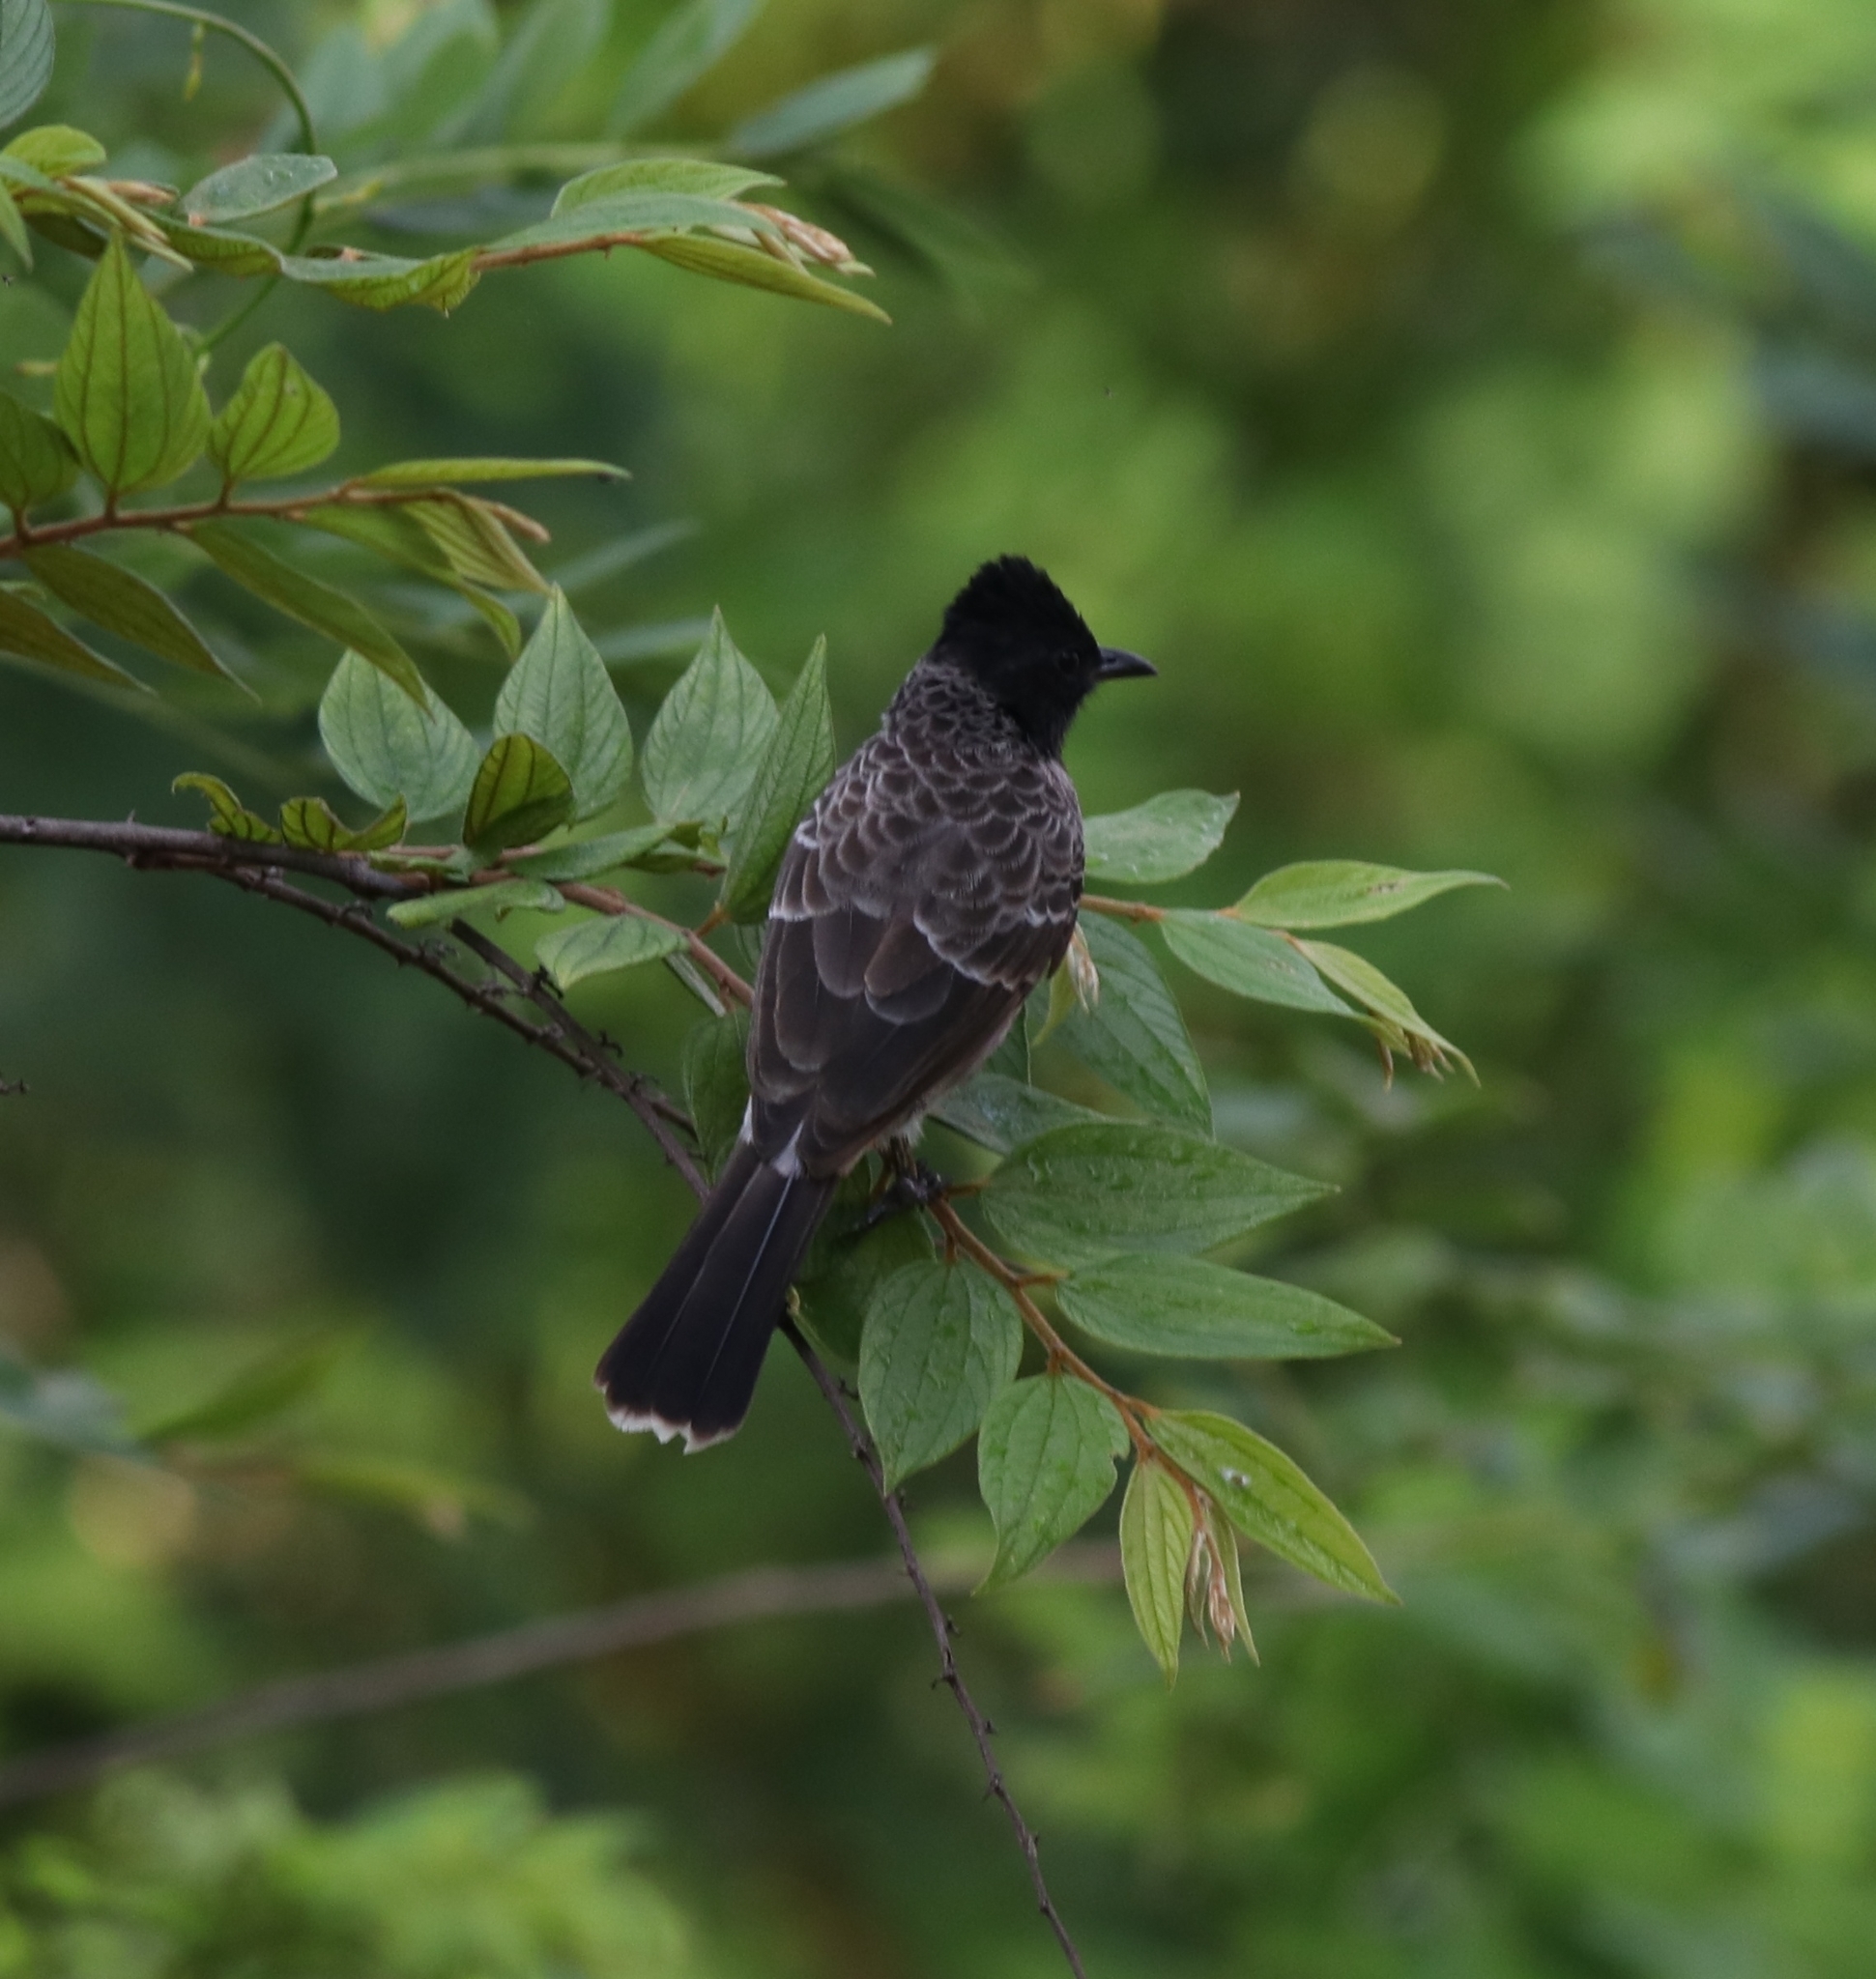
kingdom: Animalia
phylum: Chordata
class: Aves
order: Passeriformes
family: Pycnonotidae
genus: Pycnonotus
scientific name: Pycnonotus cafer
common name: Red-vented bulbul
